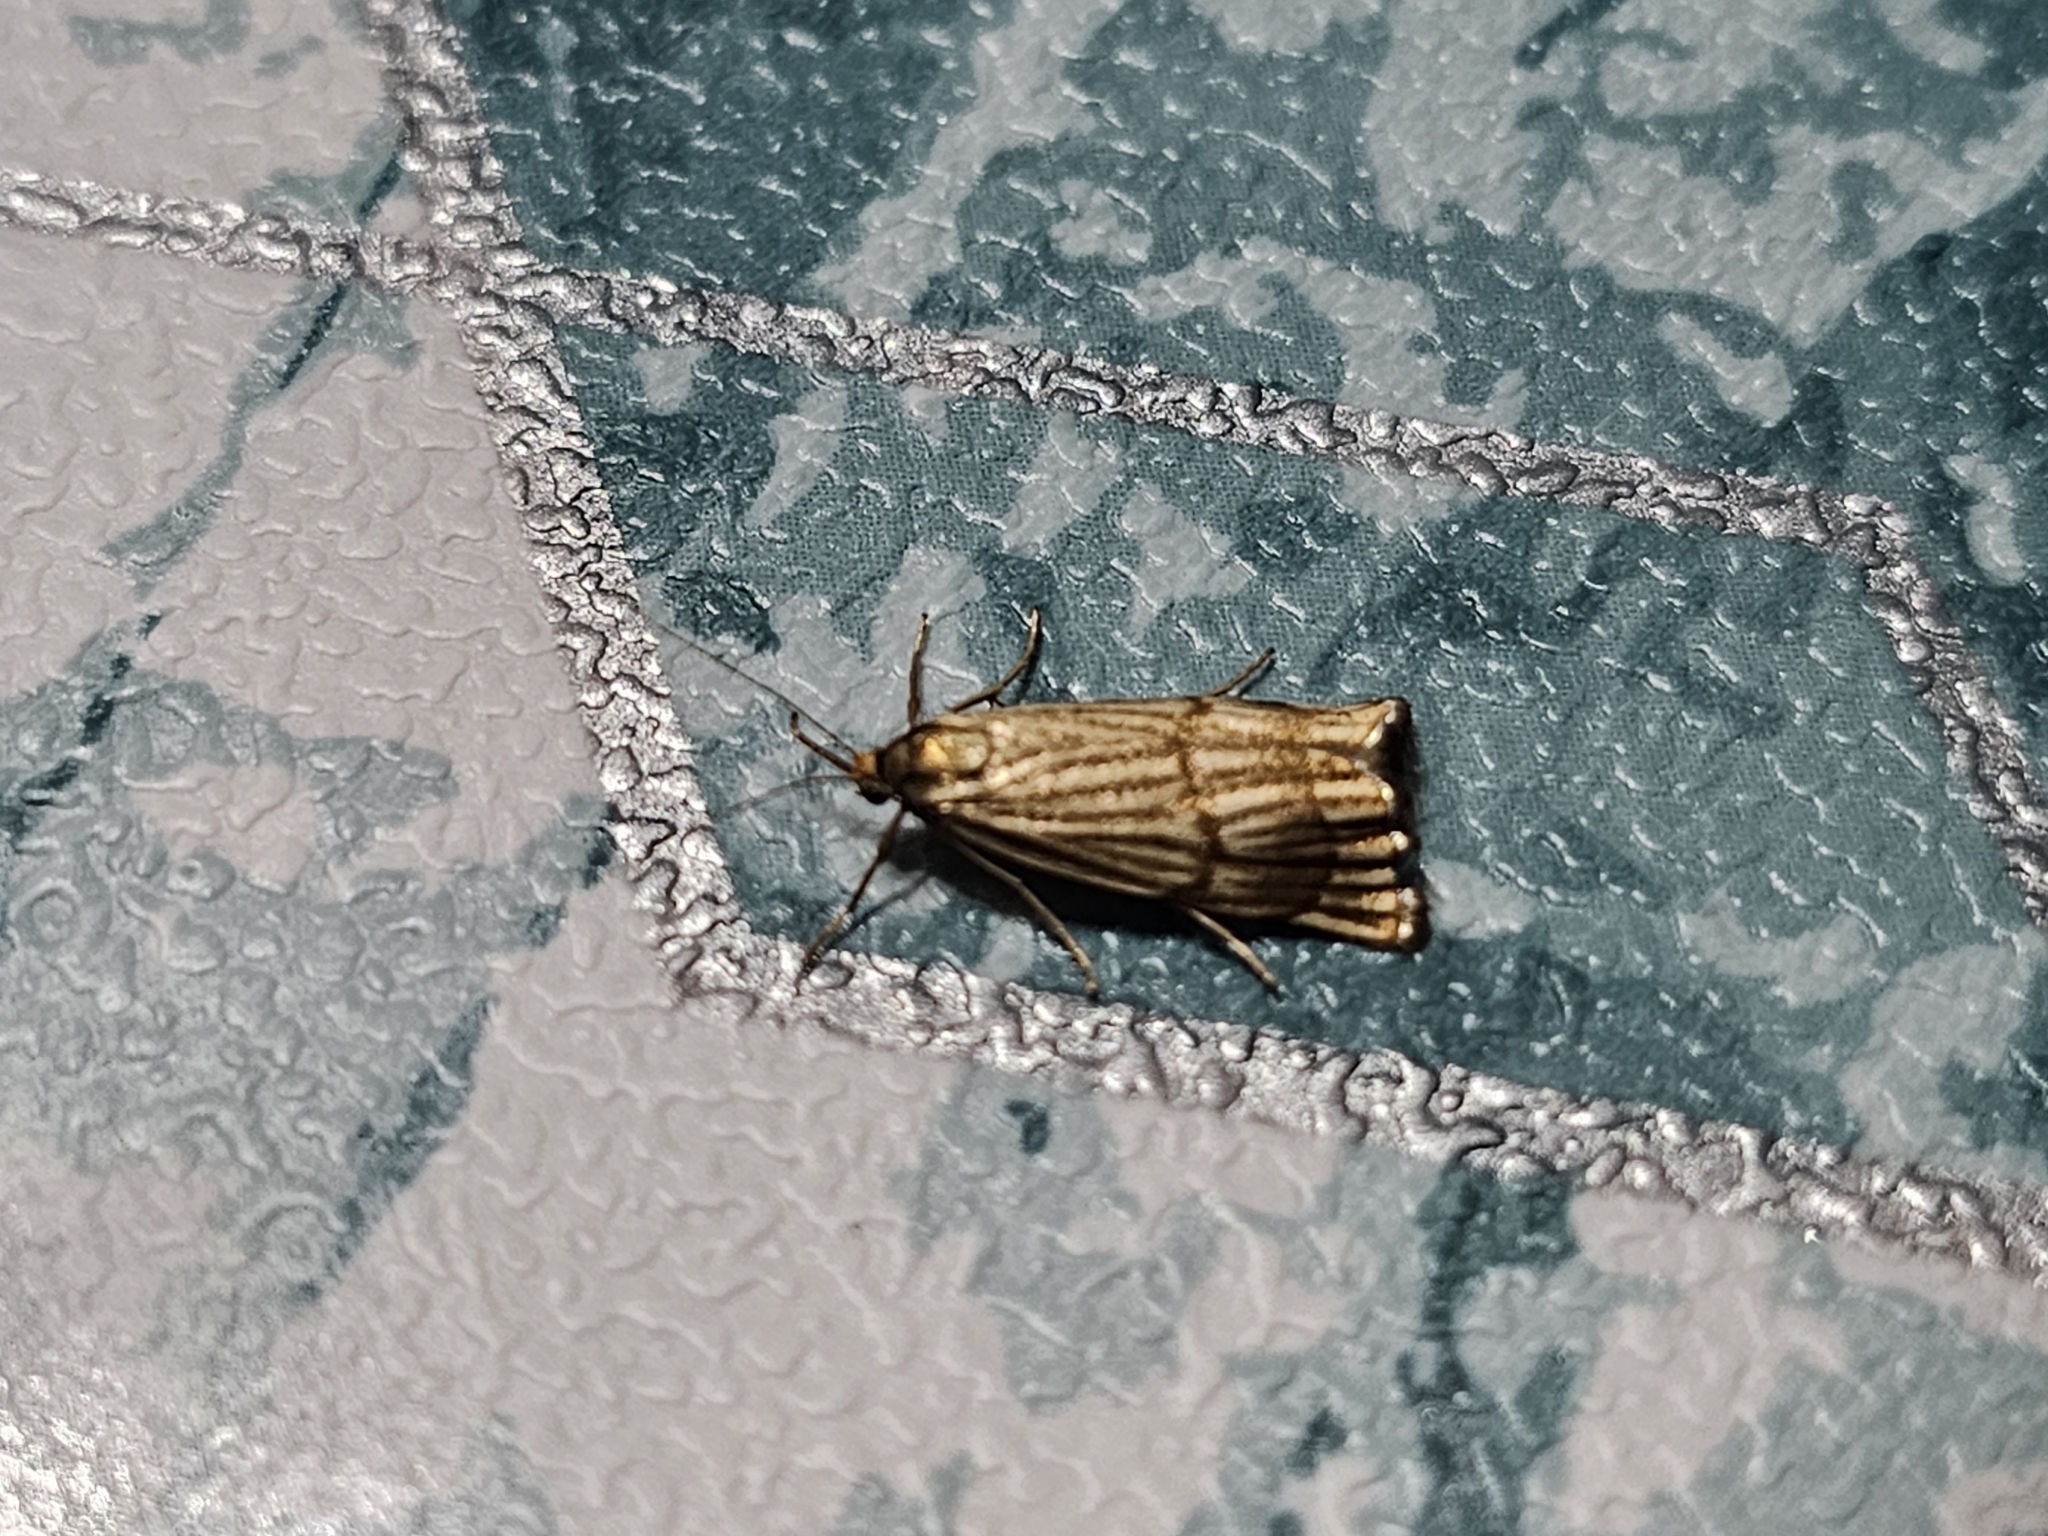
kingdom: Animalia
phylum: Arthropoda
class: Insecta
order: Lepidoptera
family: Crambidae
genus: Chrysocrambus
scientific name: Chrysocrambus linetella
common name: Orange-bar grass-veneer
